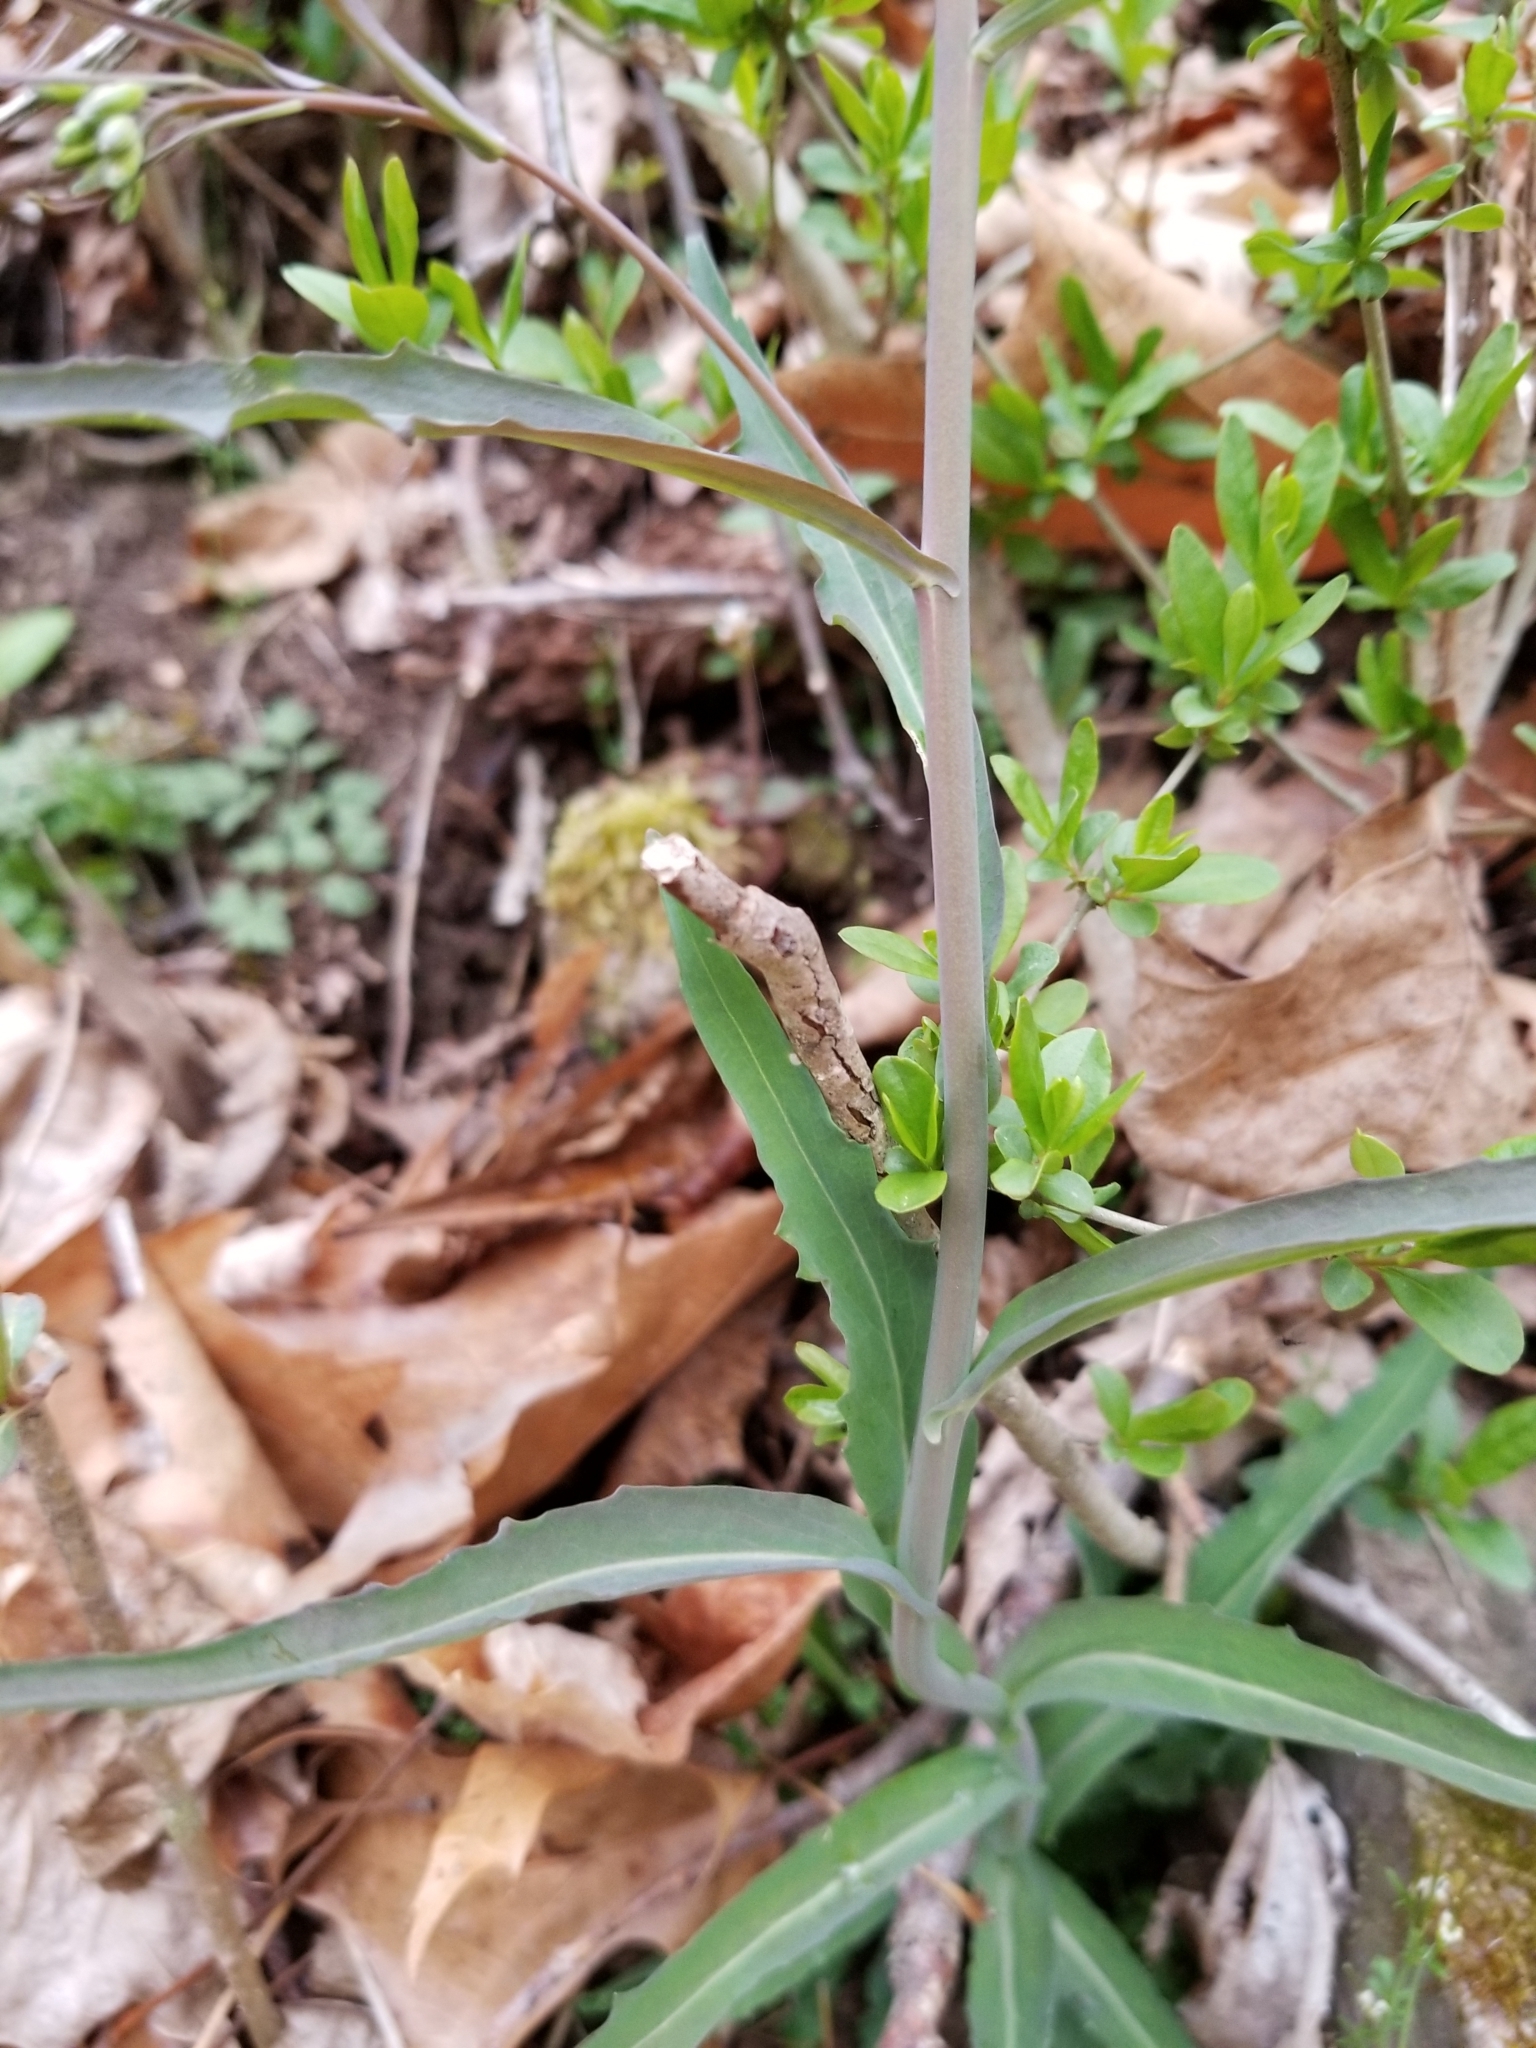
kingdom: Plantae
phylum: Tracheophyta
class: Magnoliopsida
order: Brassicales
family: Brassicaceae
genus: Borodinia
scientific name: Borodinia laevigata
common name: Smooth rockcress
